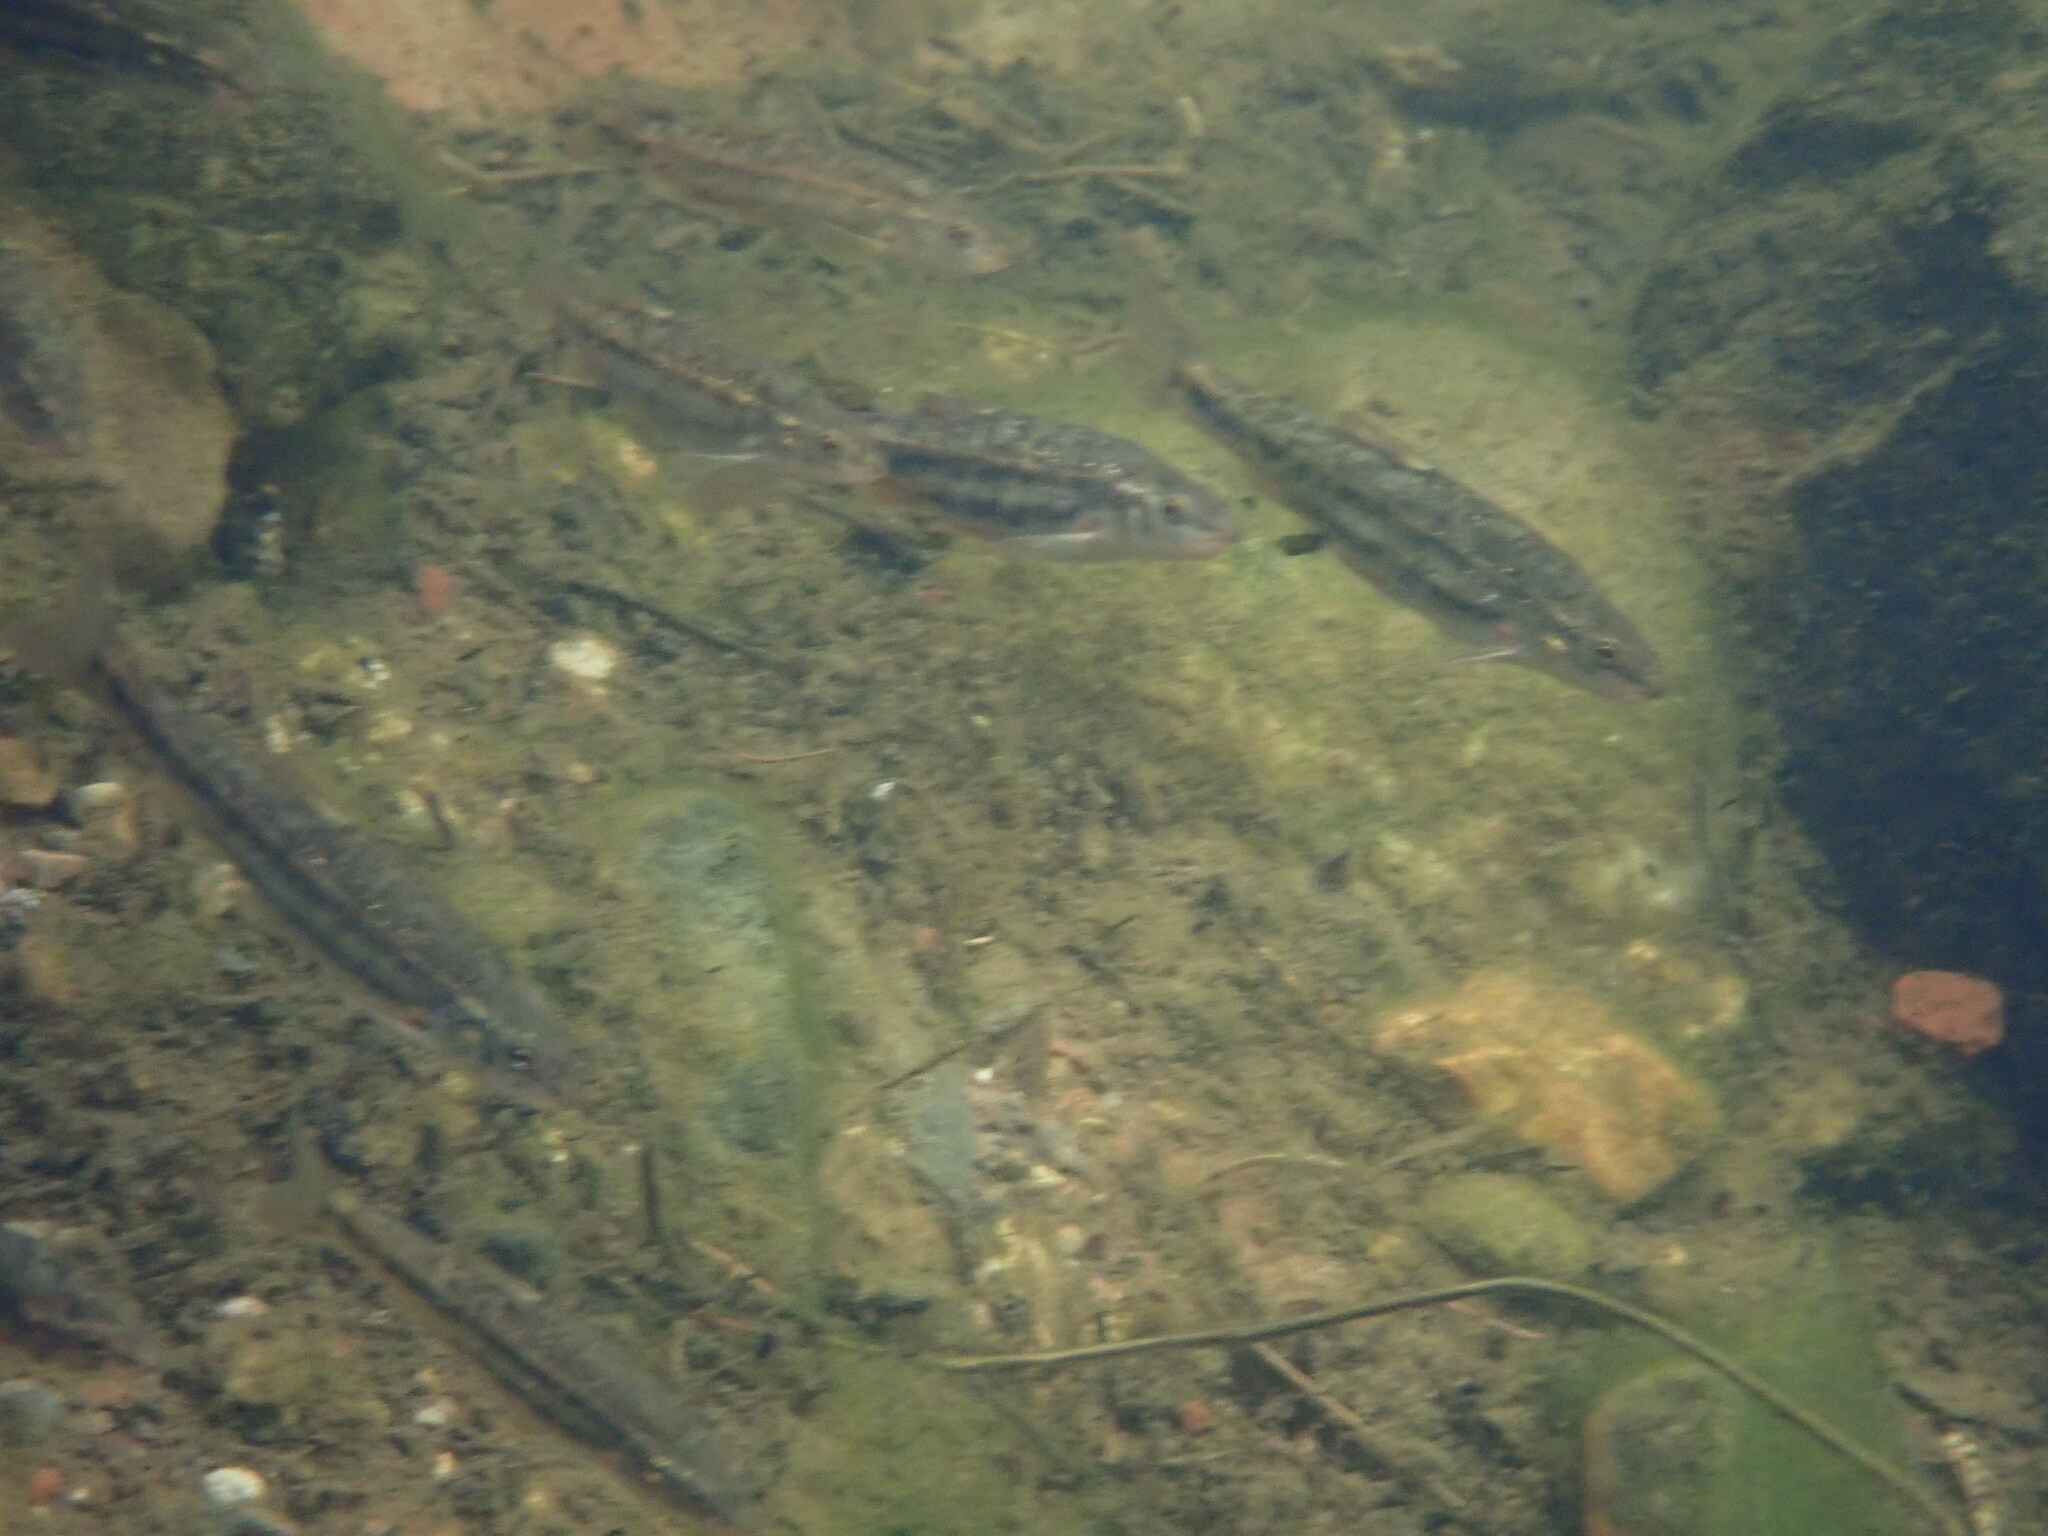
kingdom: Animalia
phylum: Chordata
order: Cypriniformes
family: Cyprinidae
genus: Rhinichthys
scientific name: Rhinichthys osculus
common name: Speckled dace
